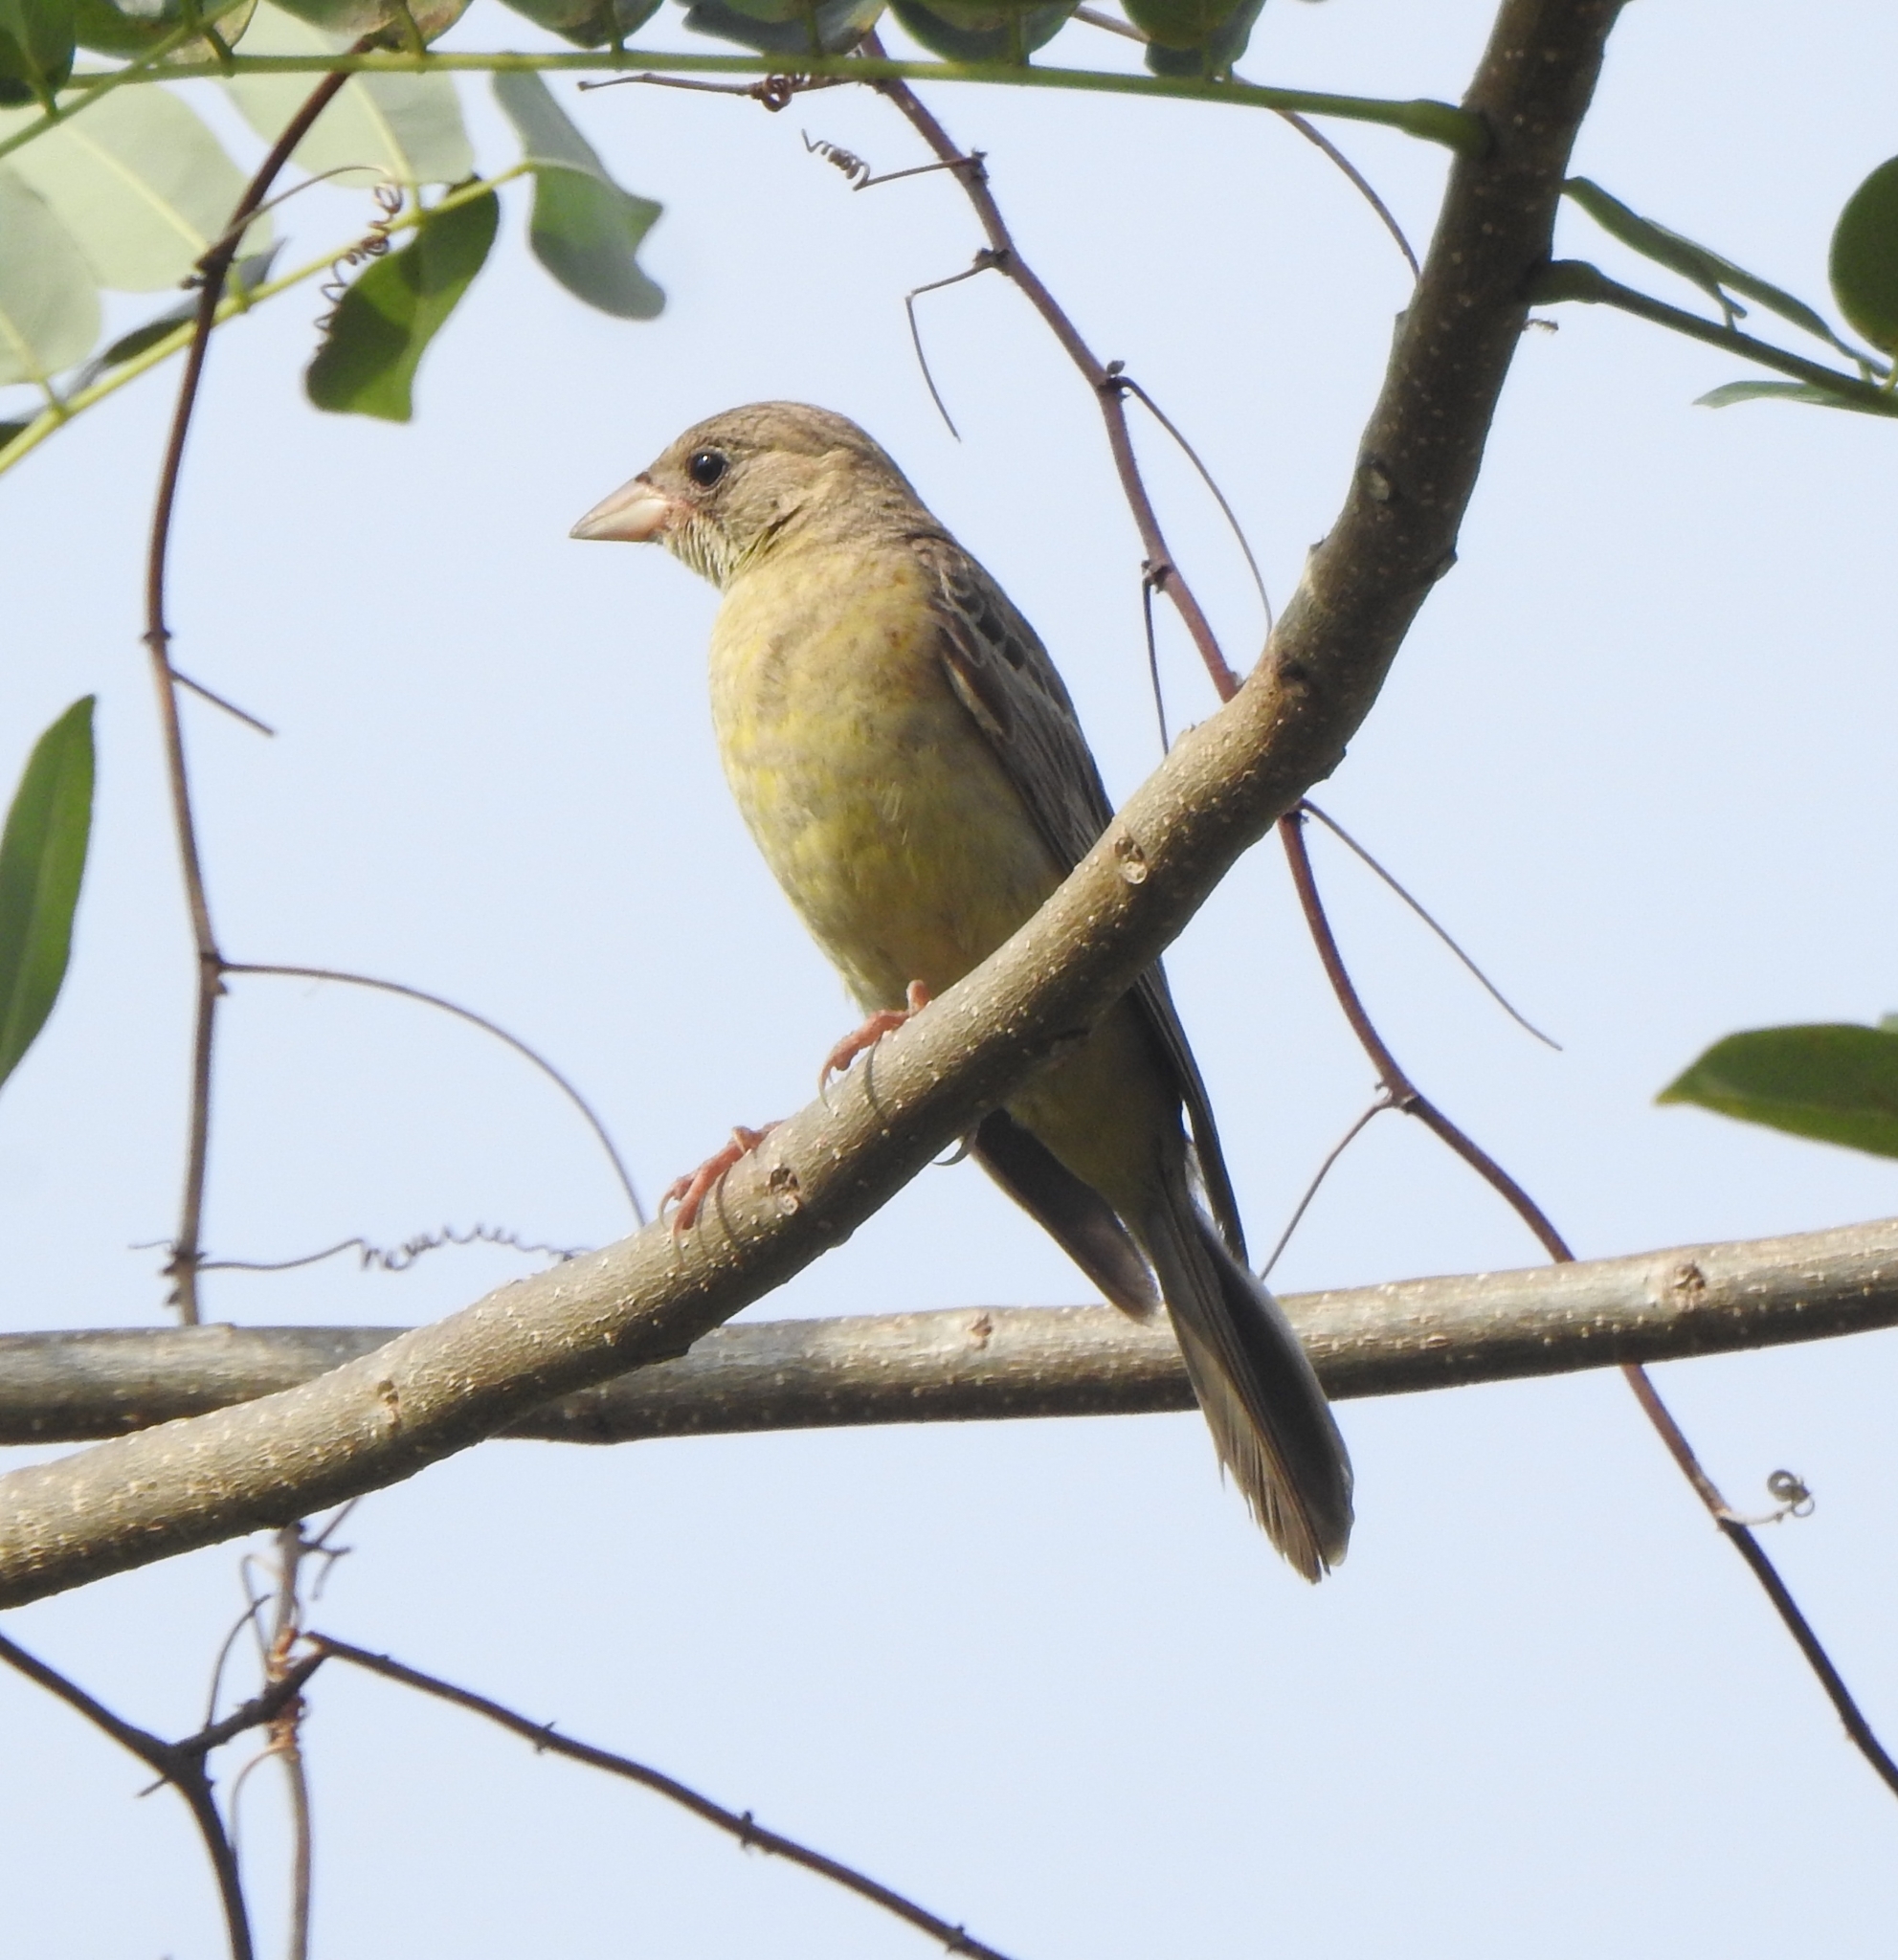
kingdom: Animalia
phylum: Chordata
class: Aves
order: Passeriformes
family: Emberizidae
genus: Emberiza
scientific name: Emberiza melanocephala
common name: Black-headed bunting
